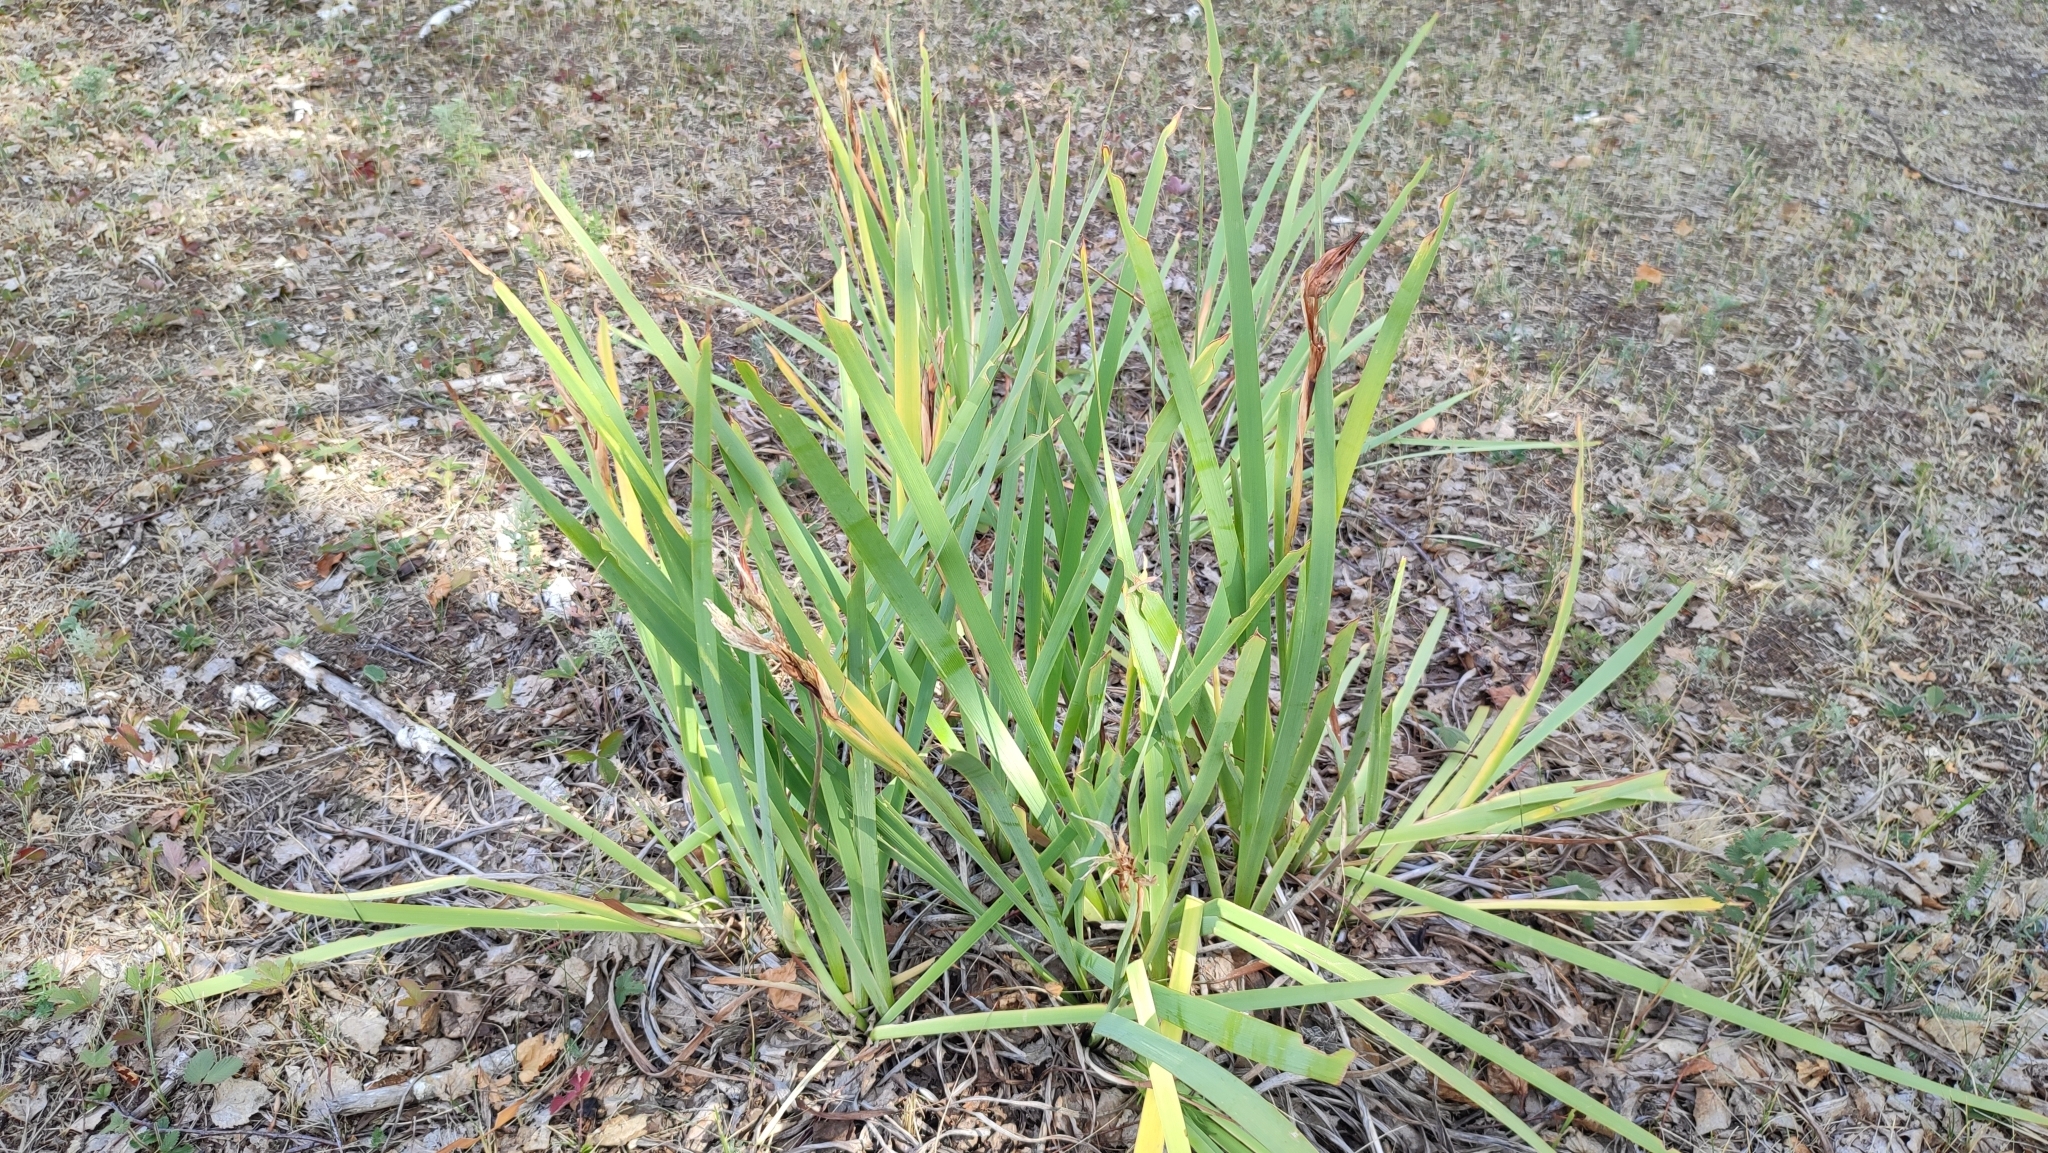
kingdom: Plantae
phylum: Tracheophyta
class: Liliopsida
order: Asparagales
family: Iridaceae
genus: Iris
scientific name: Iris halophila
